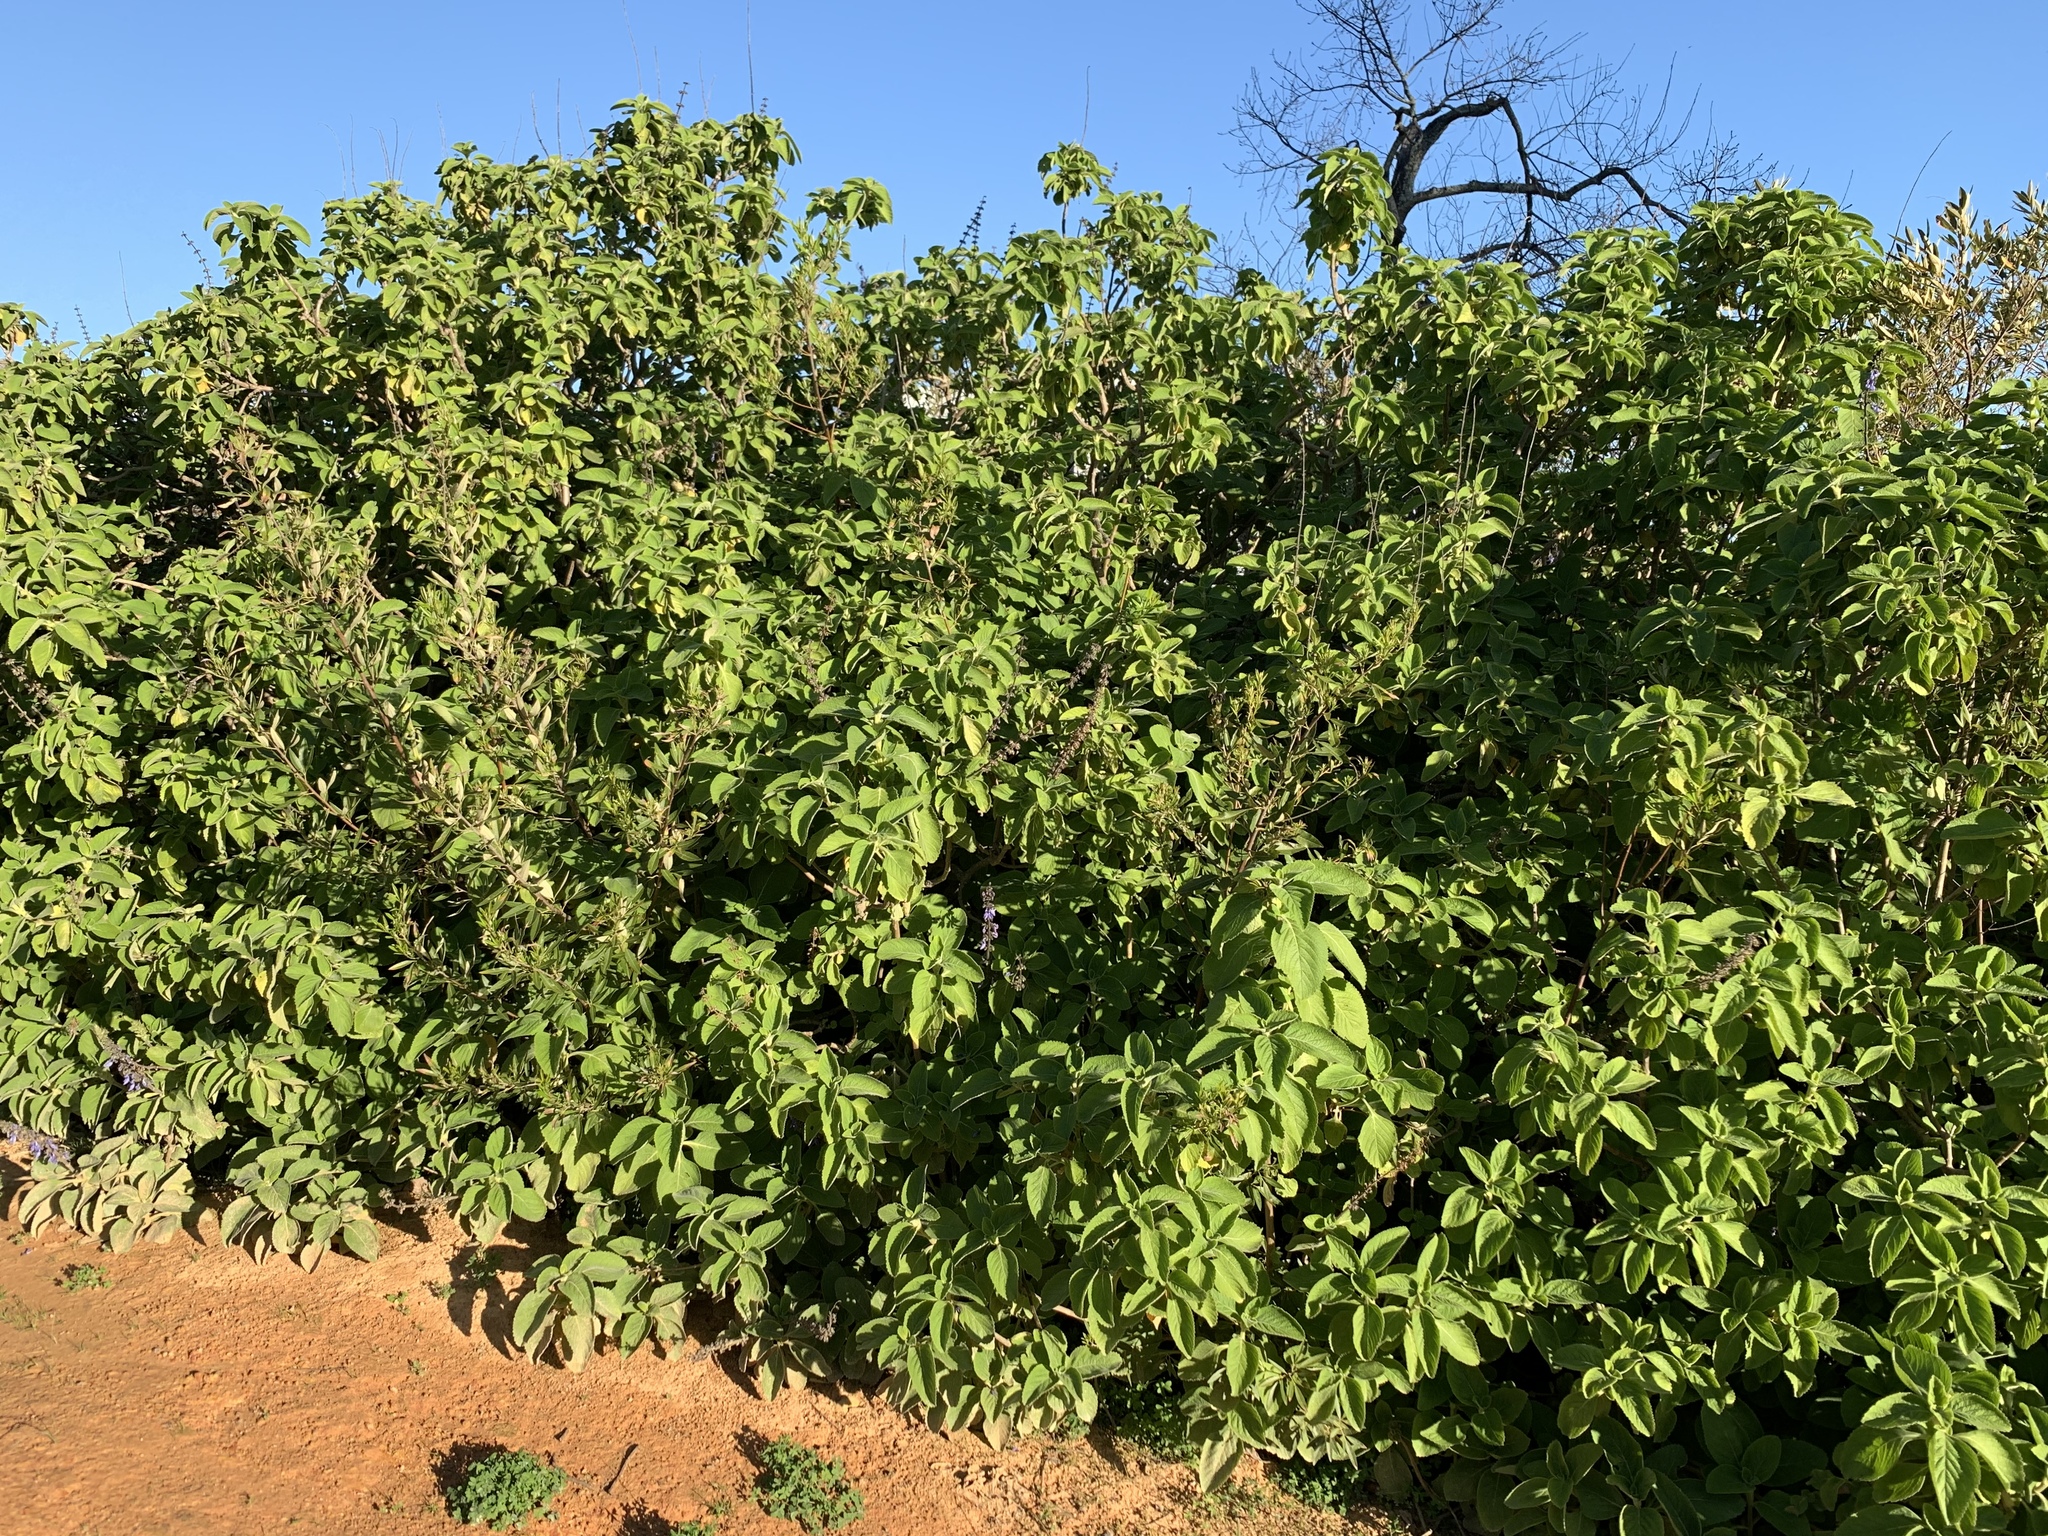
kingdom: Plantae
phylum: Tracheophyta
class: Magnoliopsida
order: Lamiales
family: Lamiaceae
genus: Coleus
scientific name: Coleus barbatus
